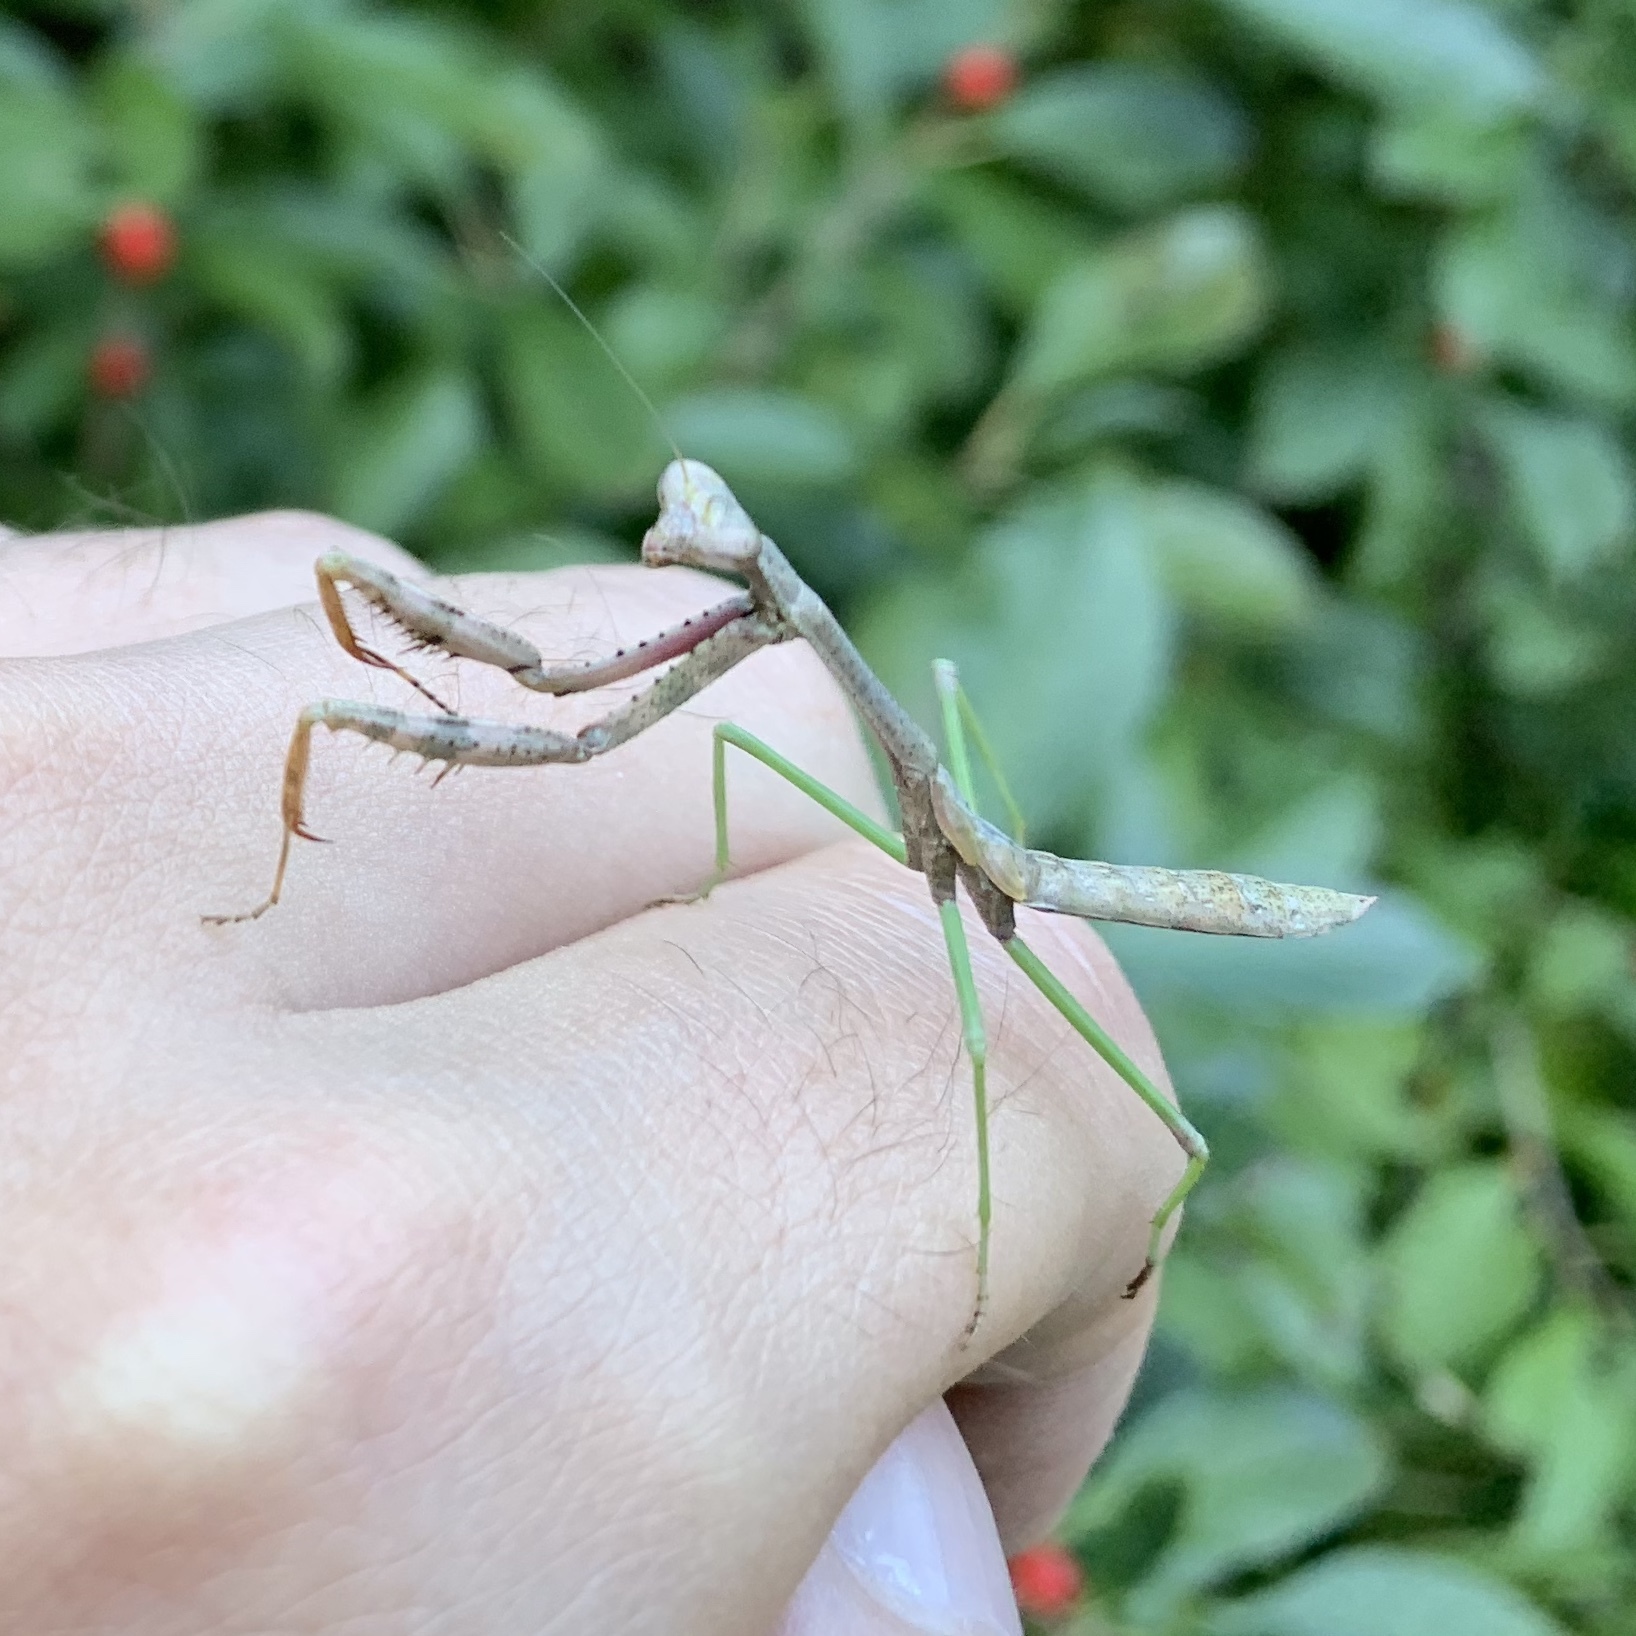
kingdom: Animalia
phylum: Arthropoda
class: Insecta
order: Mantodea
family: Mantidae
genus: Stagmomantis
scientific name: Stagmomantis carolina
